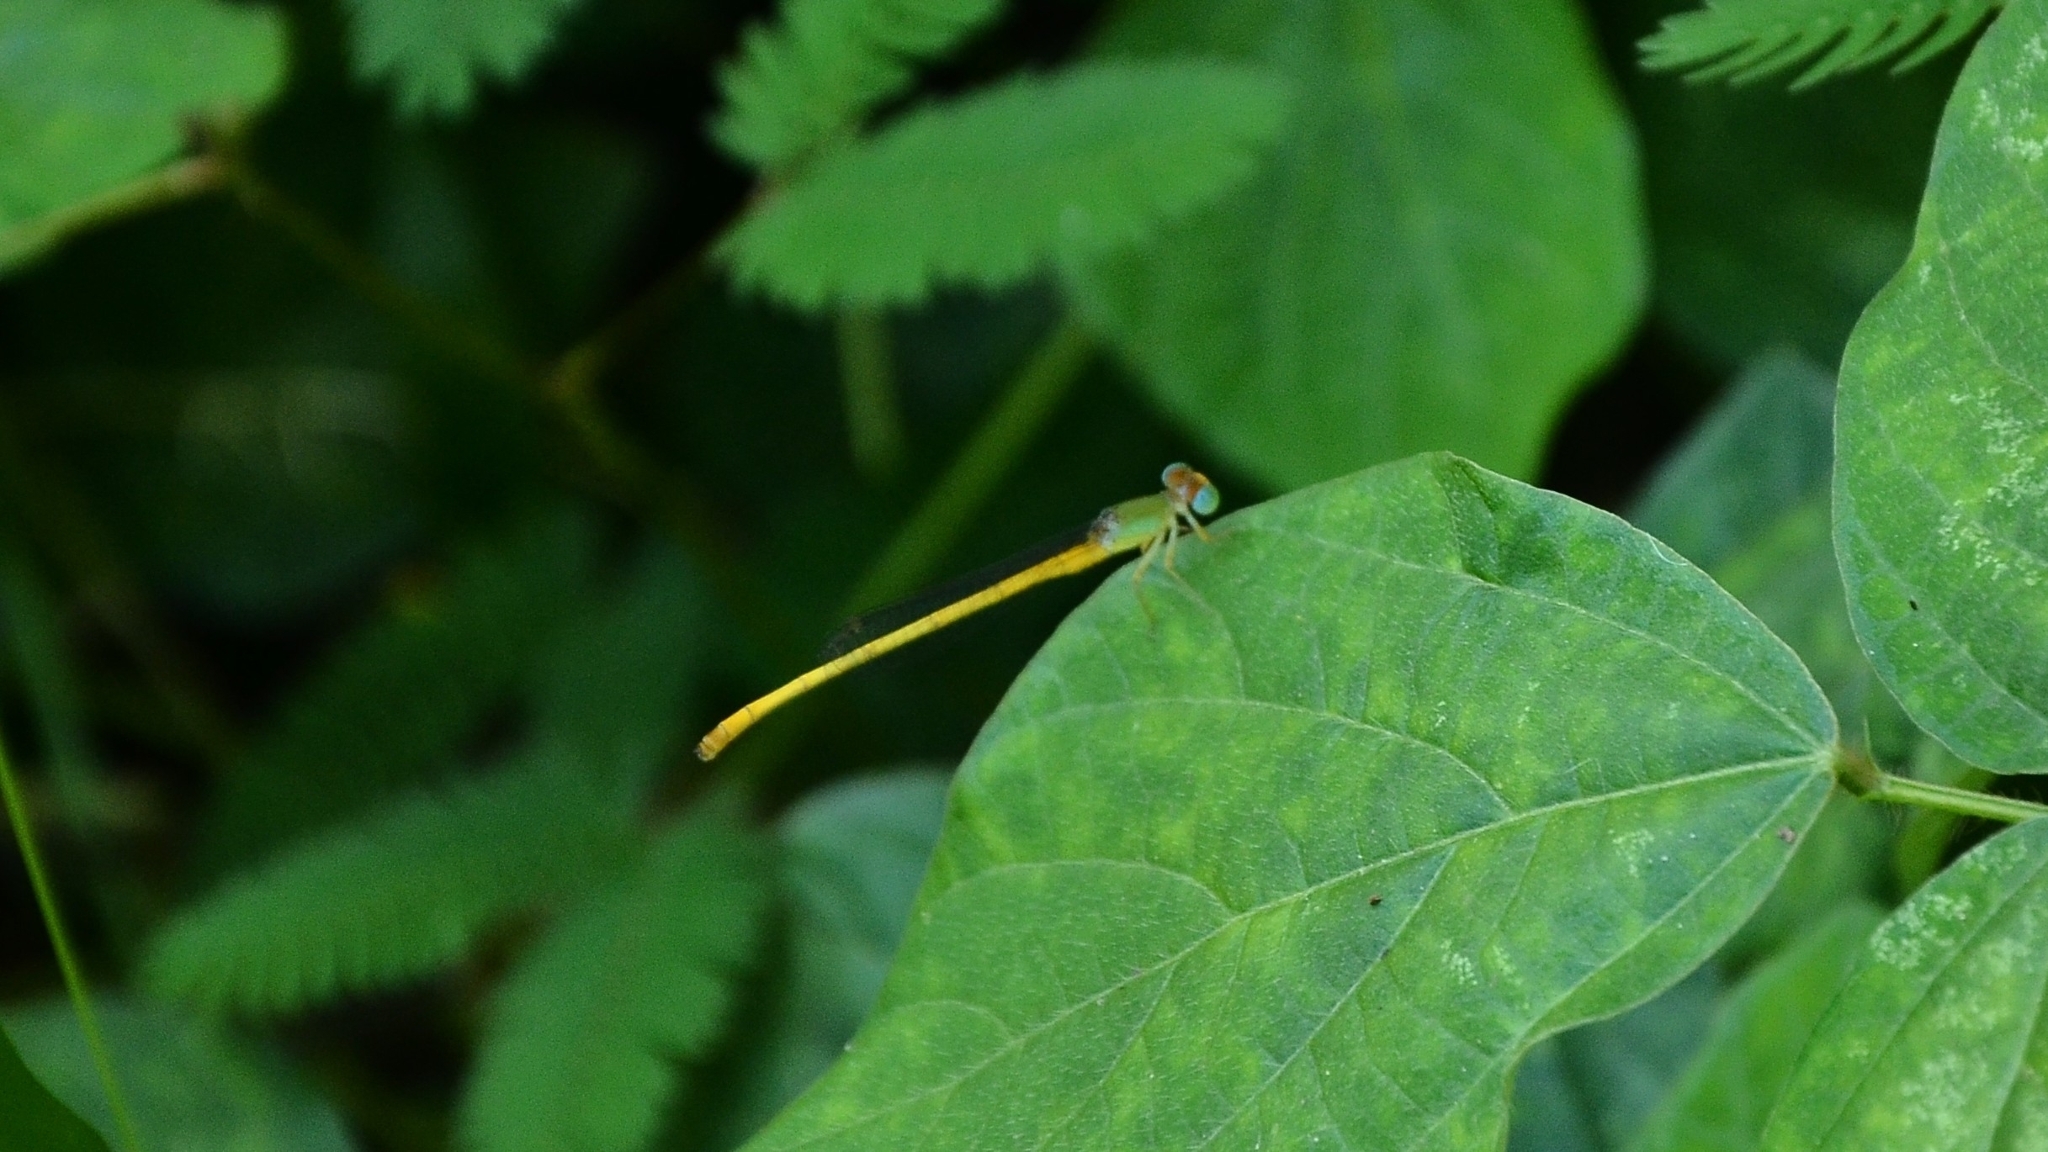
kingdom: Animalia
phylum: Arthropoda
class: Insecta
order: Odonata
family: Coenagrionidae
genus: Ceriagrion
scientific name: Ceriagrion coromandelianum
